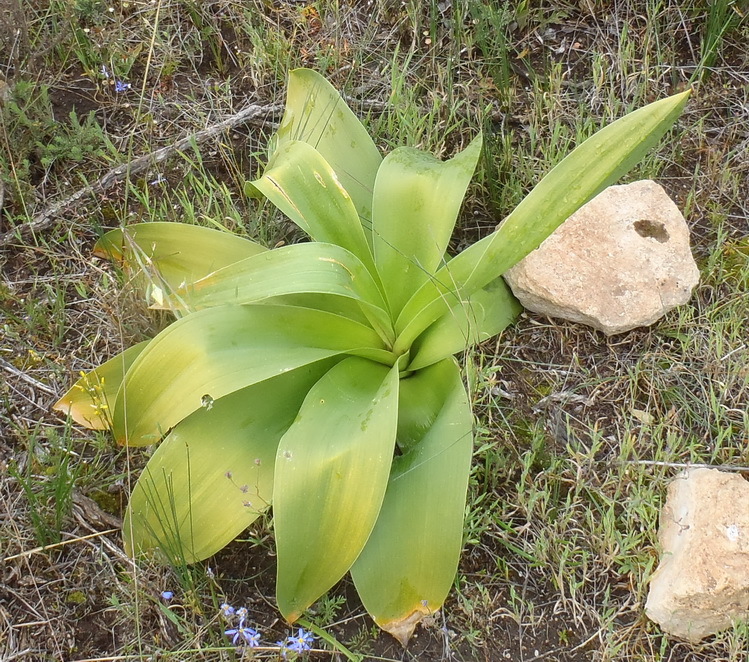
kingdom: Plantae
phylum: Tracheophyta
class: Liliopsida
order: Asparagales
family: Asparagaceae
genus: Drimia
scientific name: Drimia capensis
